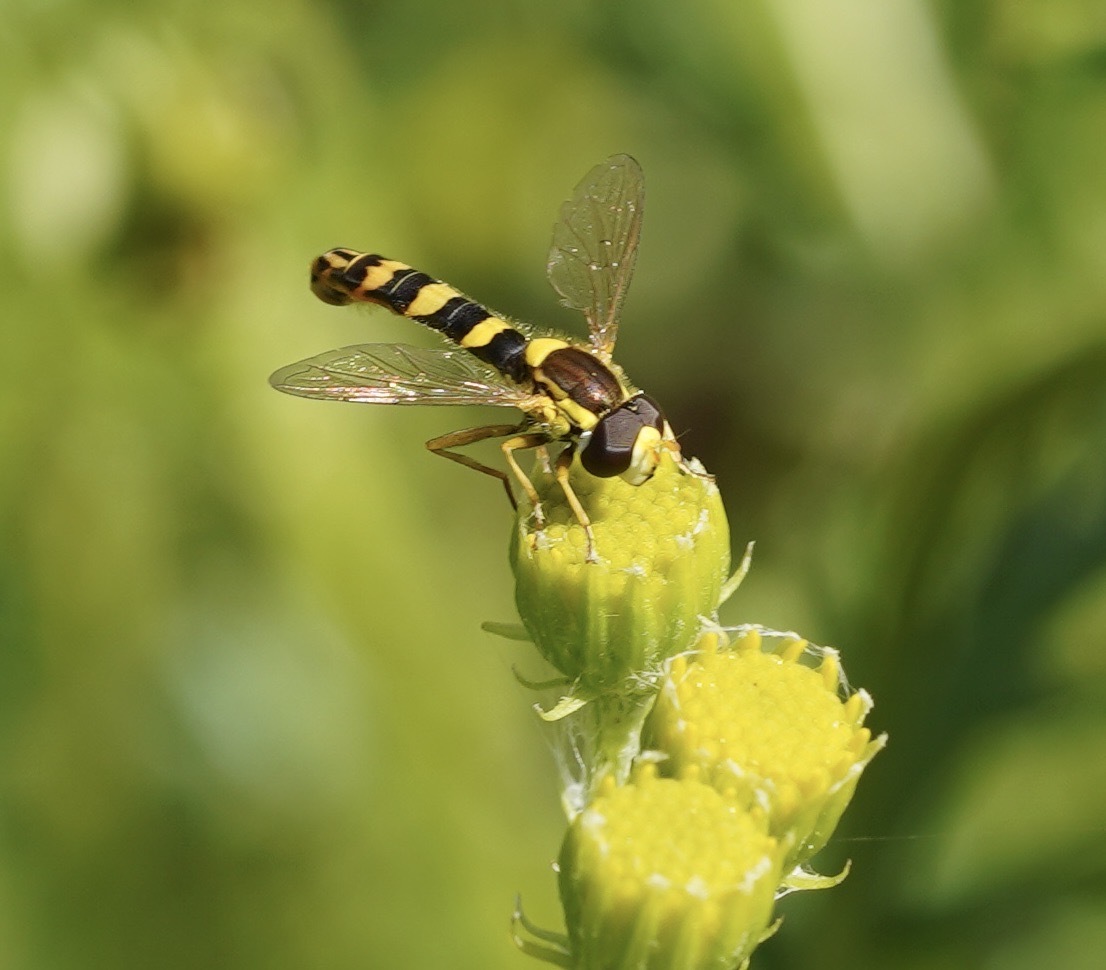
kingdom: Animalia
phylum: Arthropoda
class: Insecta
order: Diptera
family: Syrphidae
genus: Sphaerophoria
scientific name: Sphaerophoria scripta
